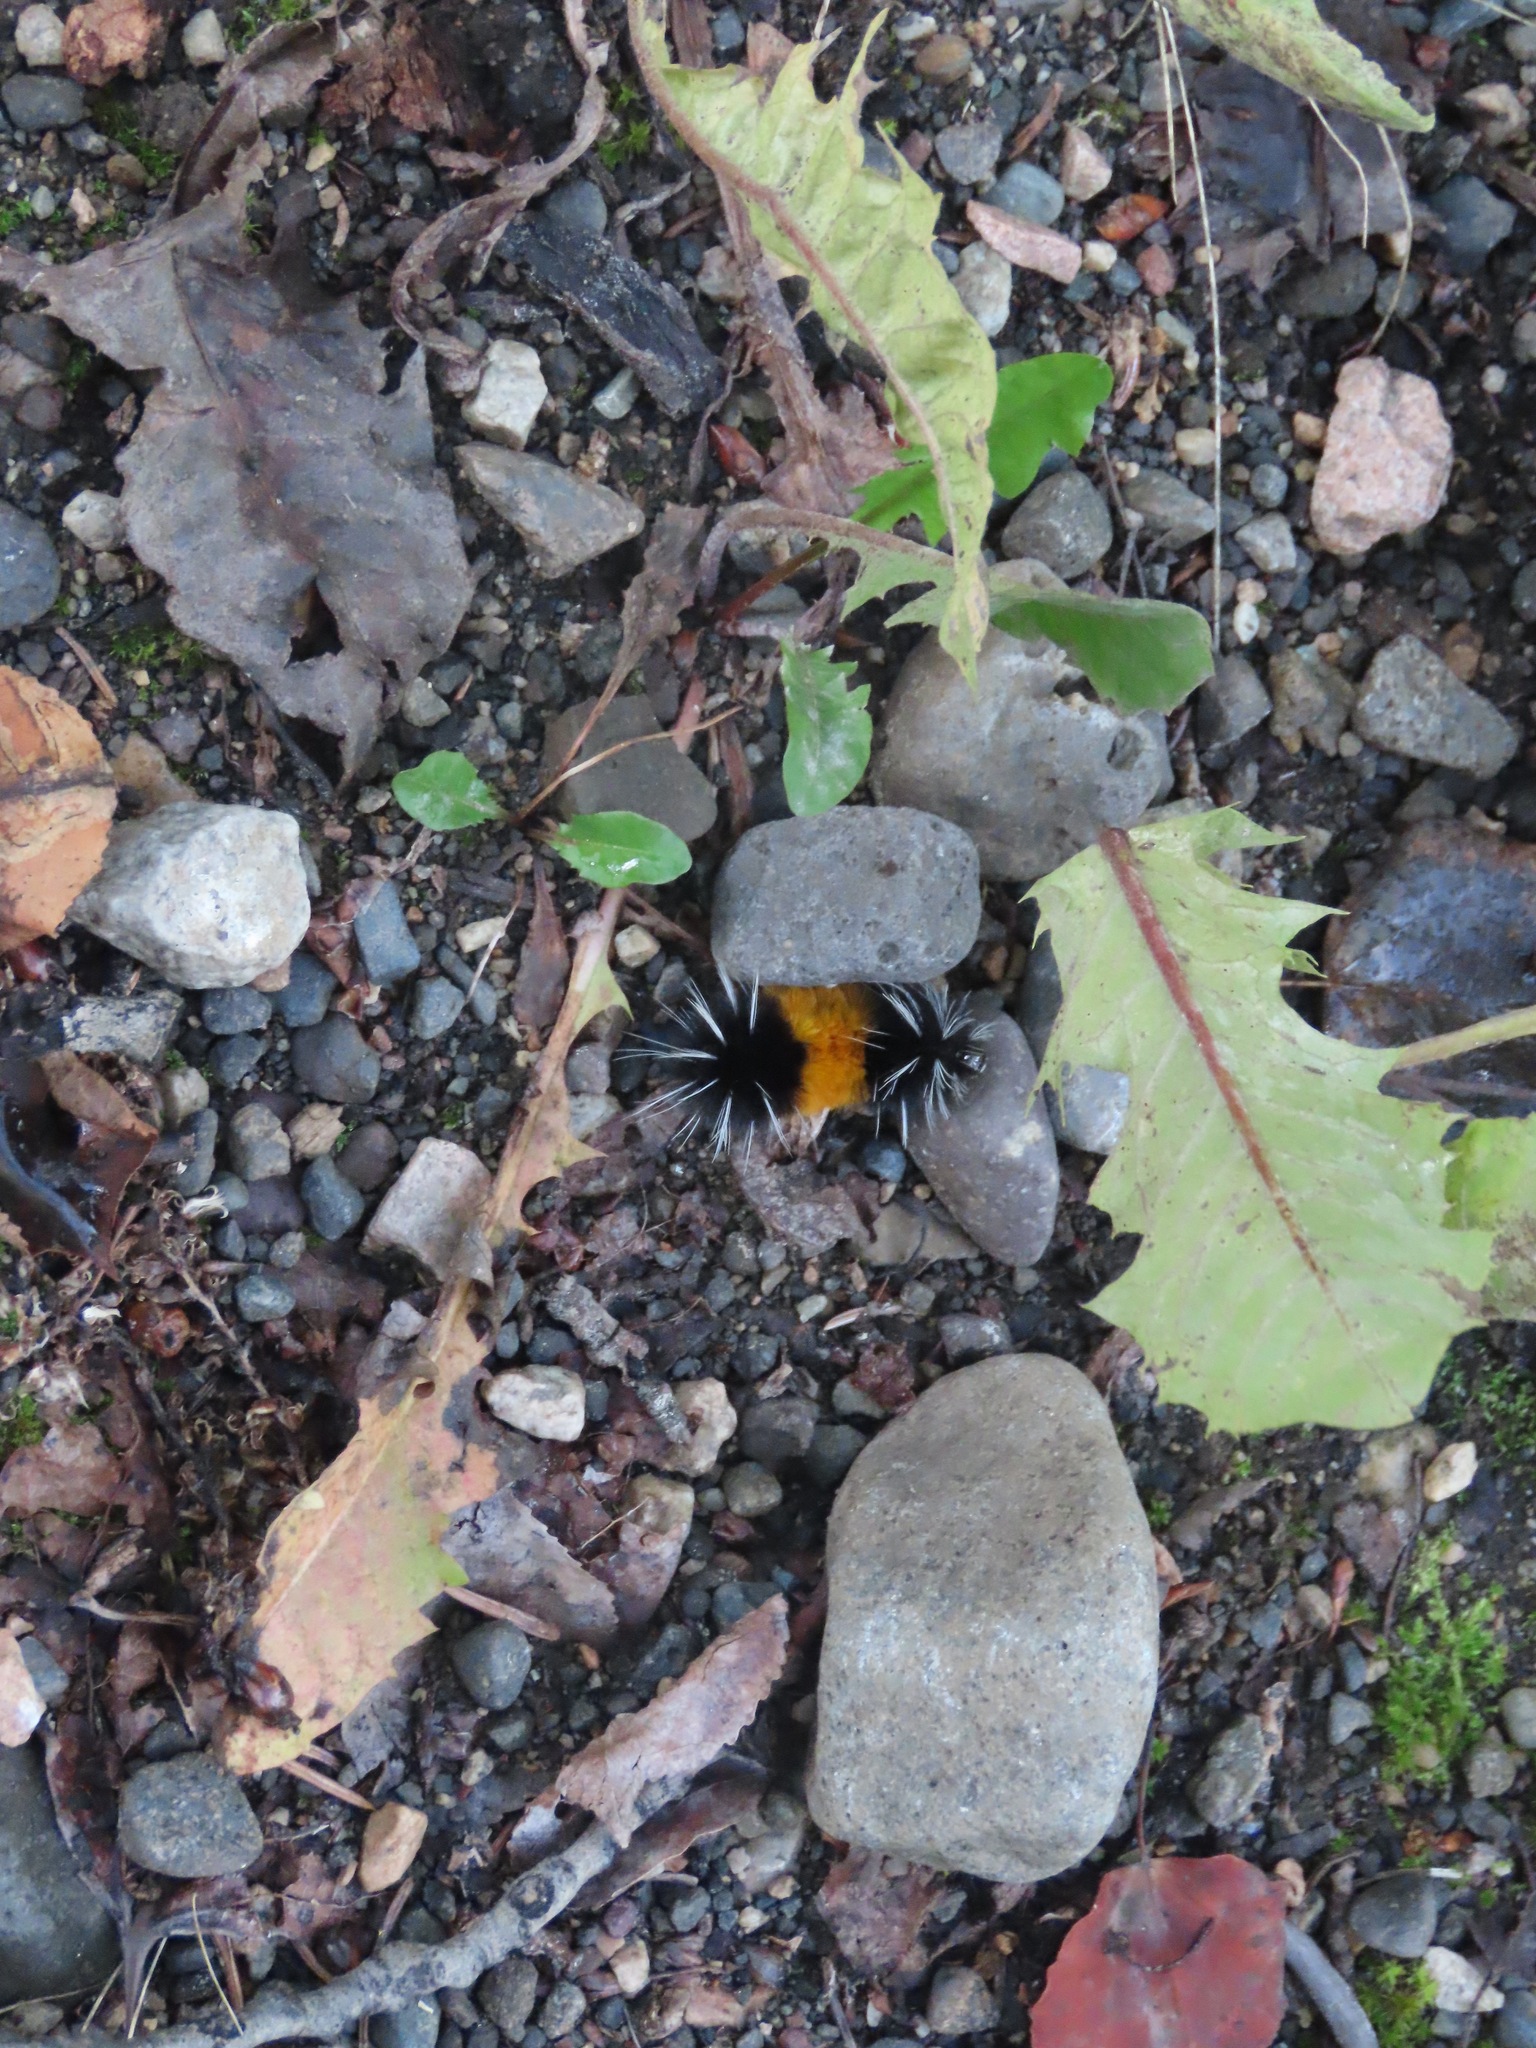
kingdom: Animalia
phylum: Arthropoda
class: Insecta
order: Lepidoptera
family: Erebidae
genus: Lophocampa
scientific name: Lophocampa maculata
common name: Spotted tussock moth
